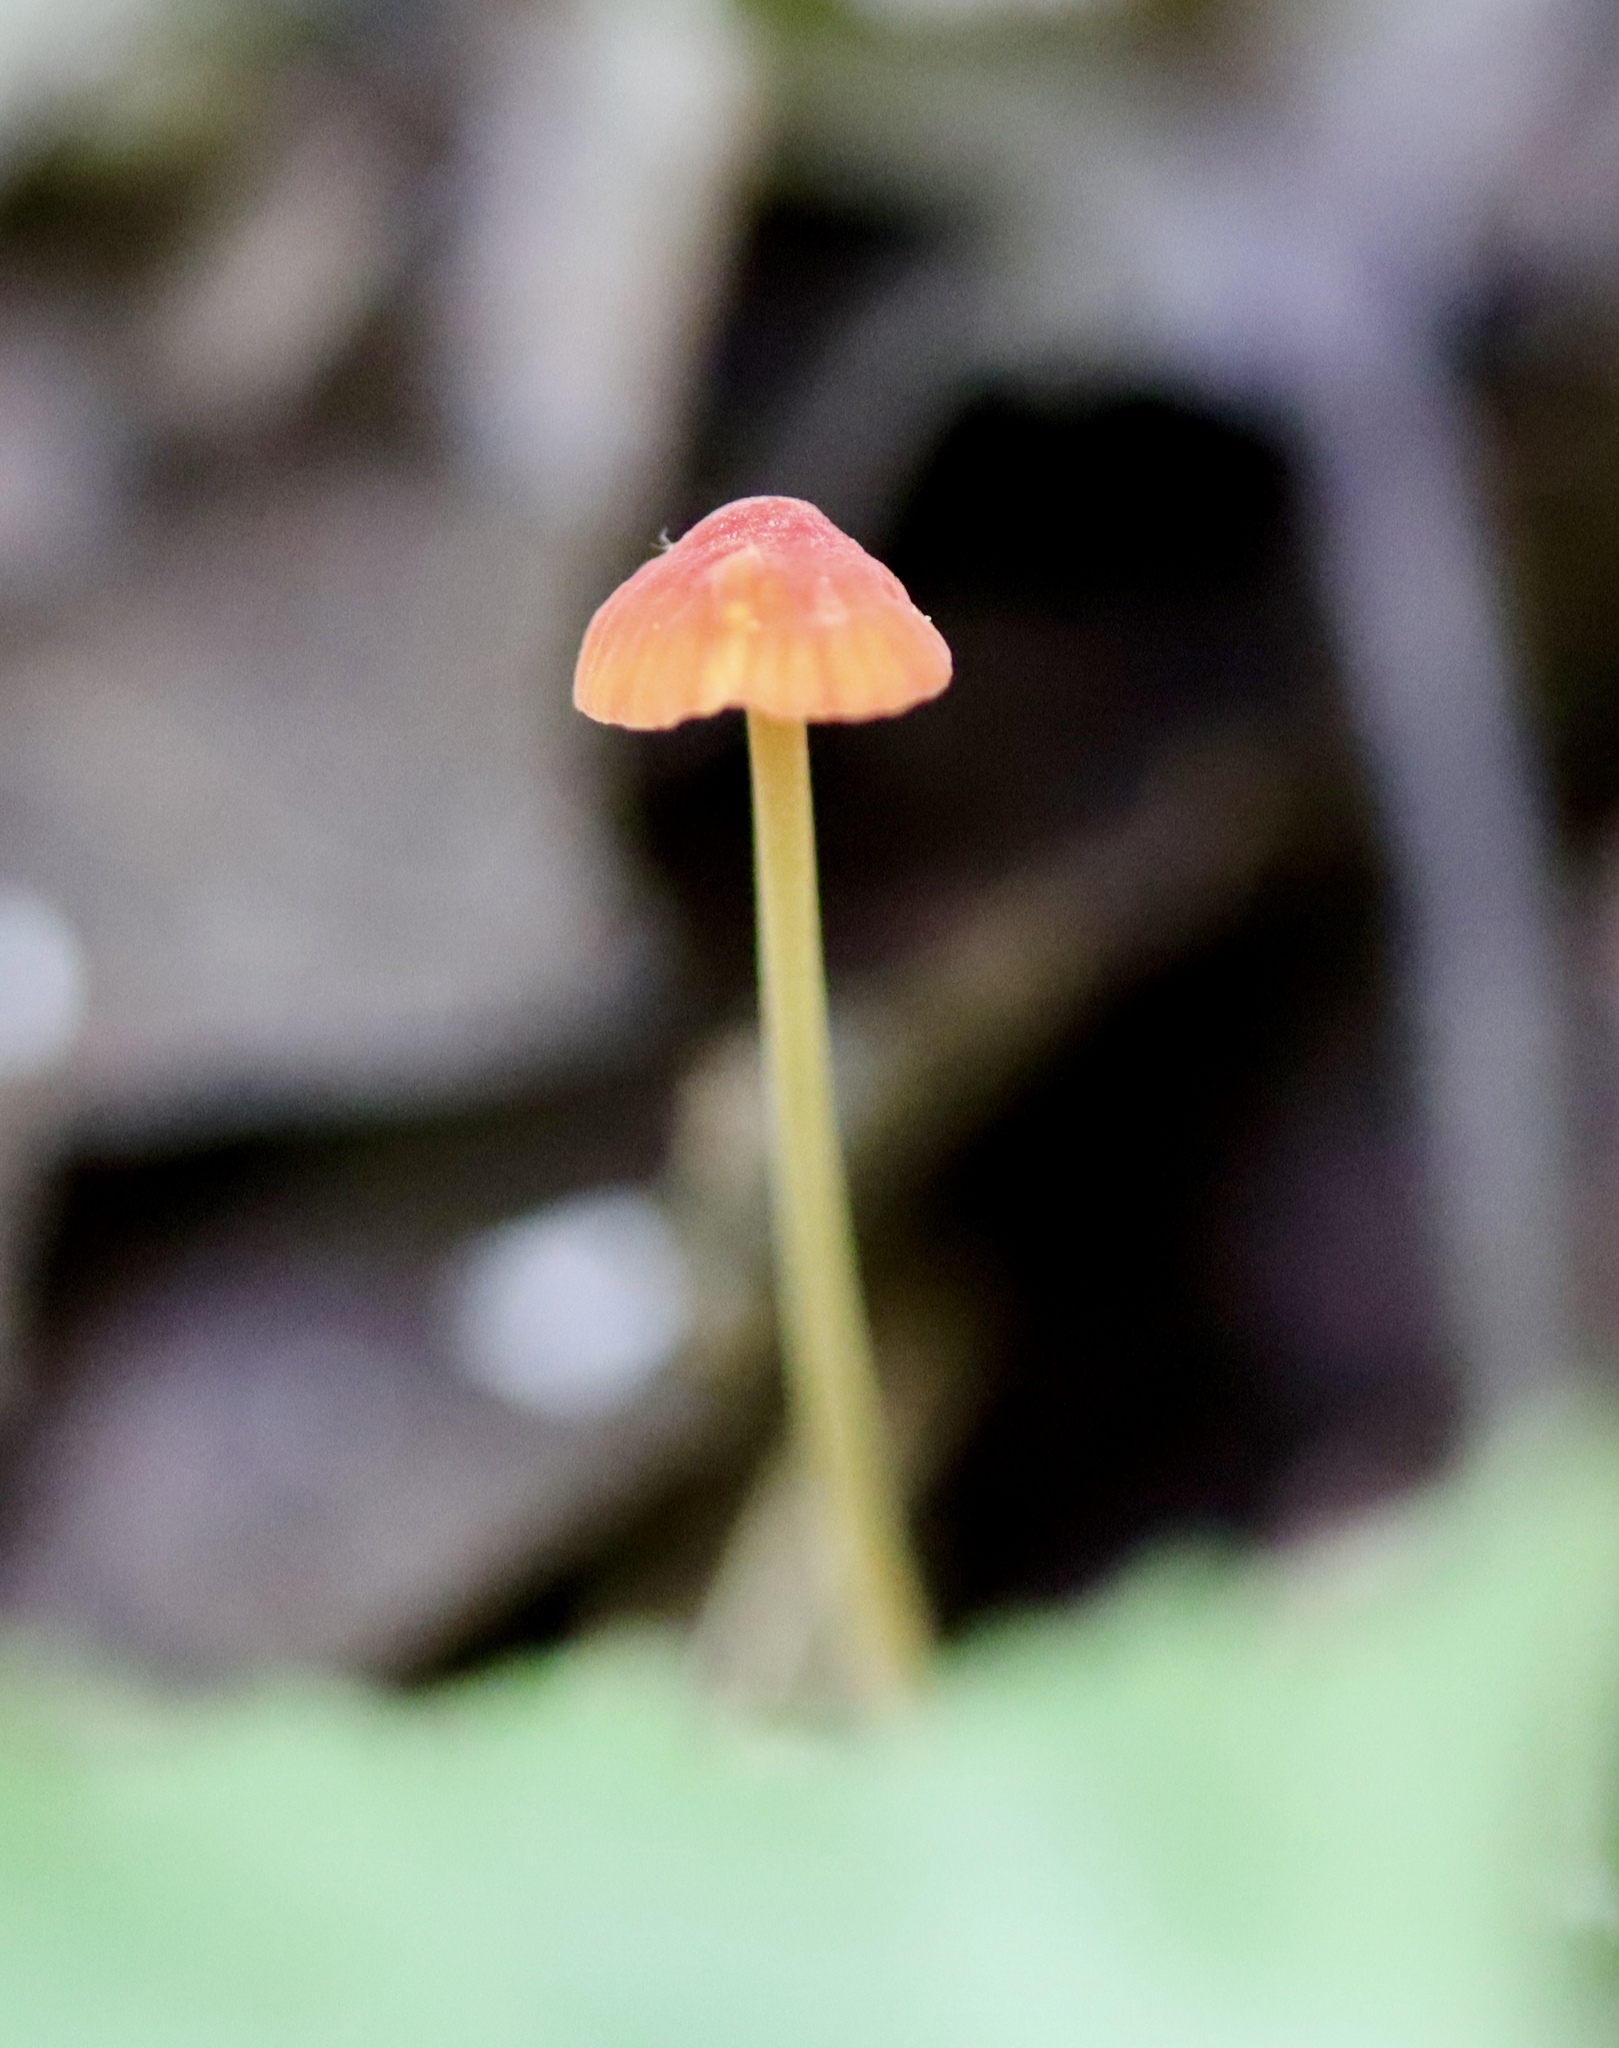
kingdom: Fungi
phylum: Basidiomycota
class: Agaricomycetes
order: Agaricales
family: Mycenaceae
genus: Mycena
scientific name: Mycena acicula
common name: Orange bonnet
